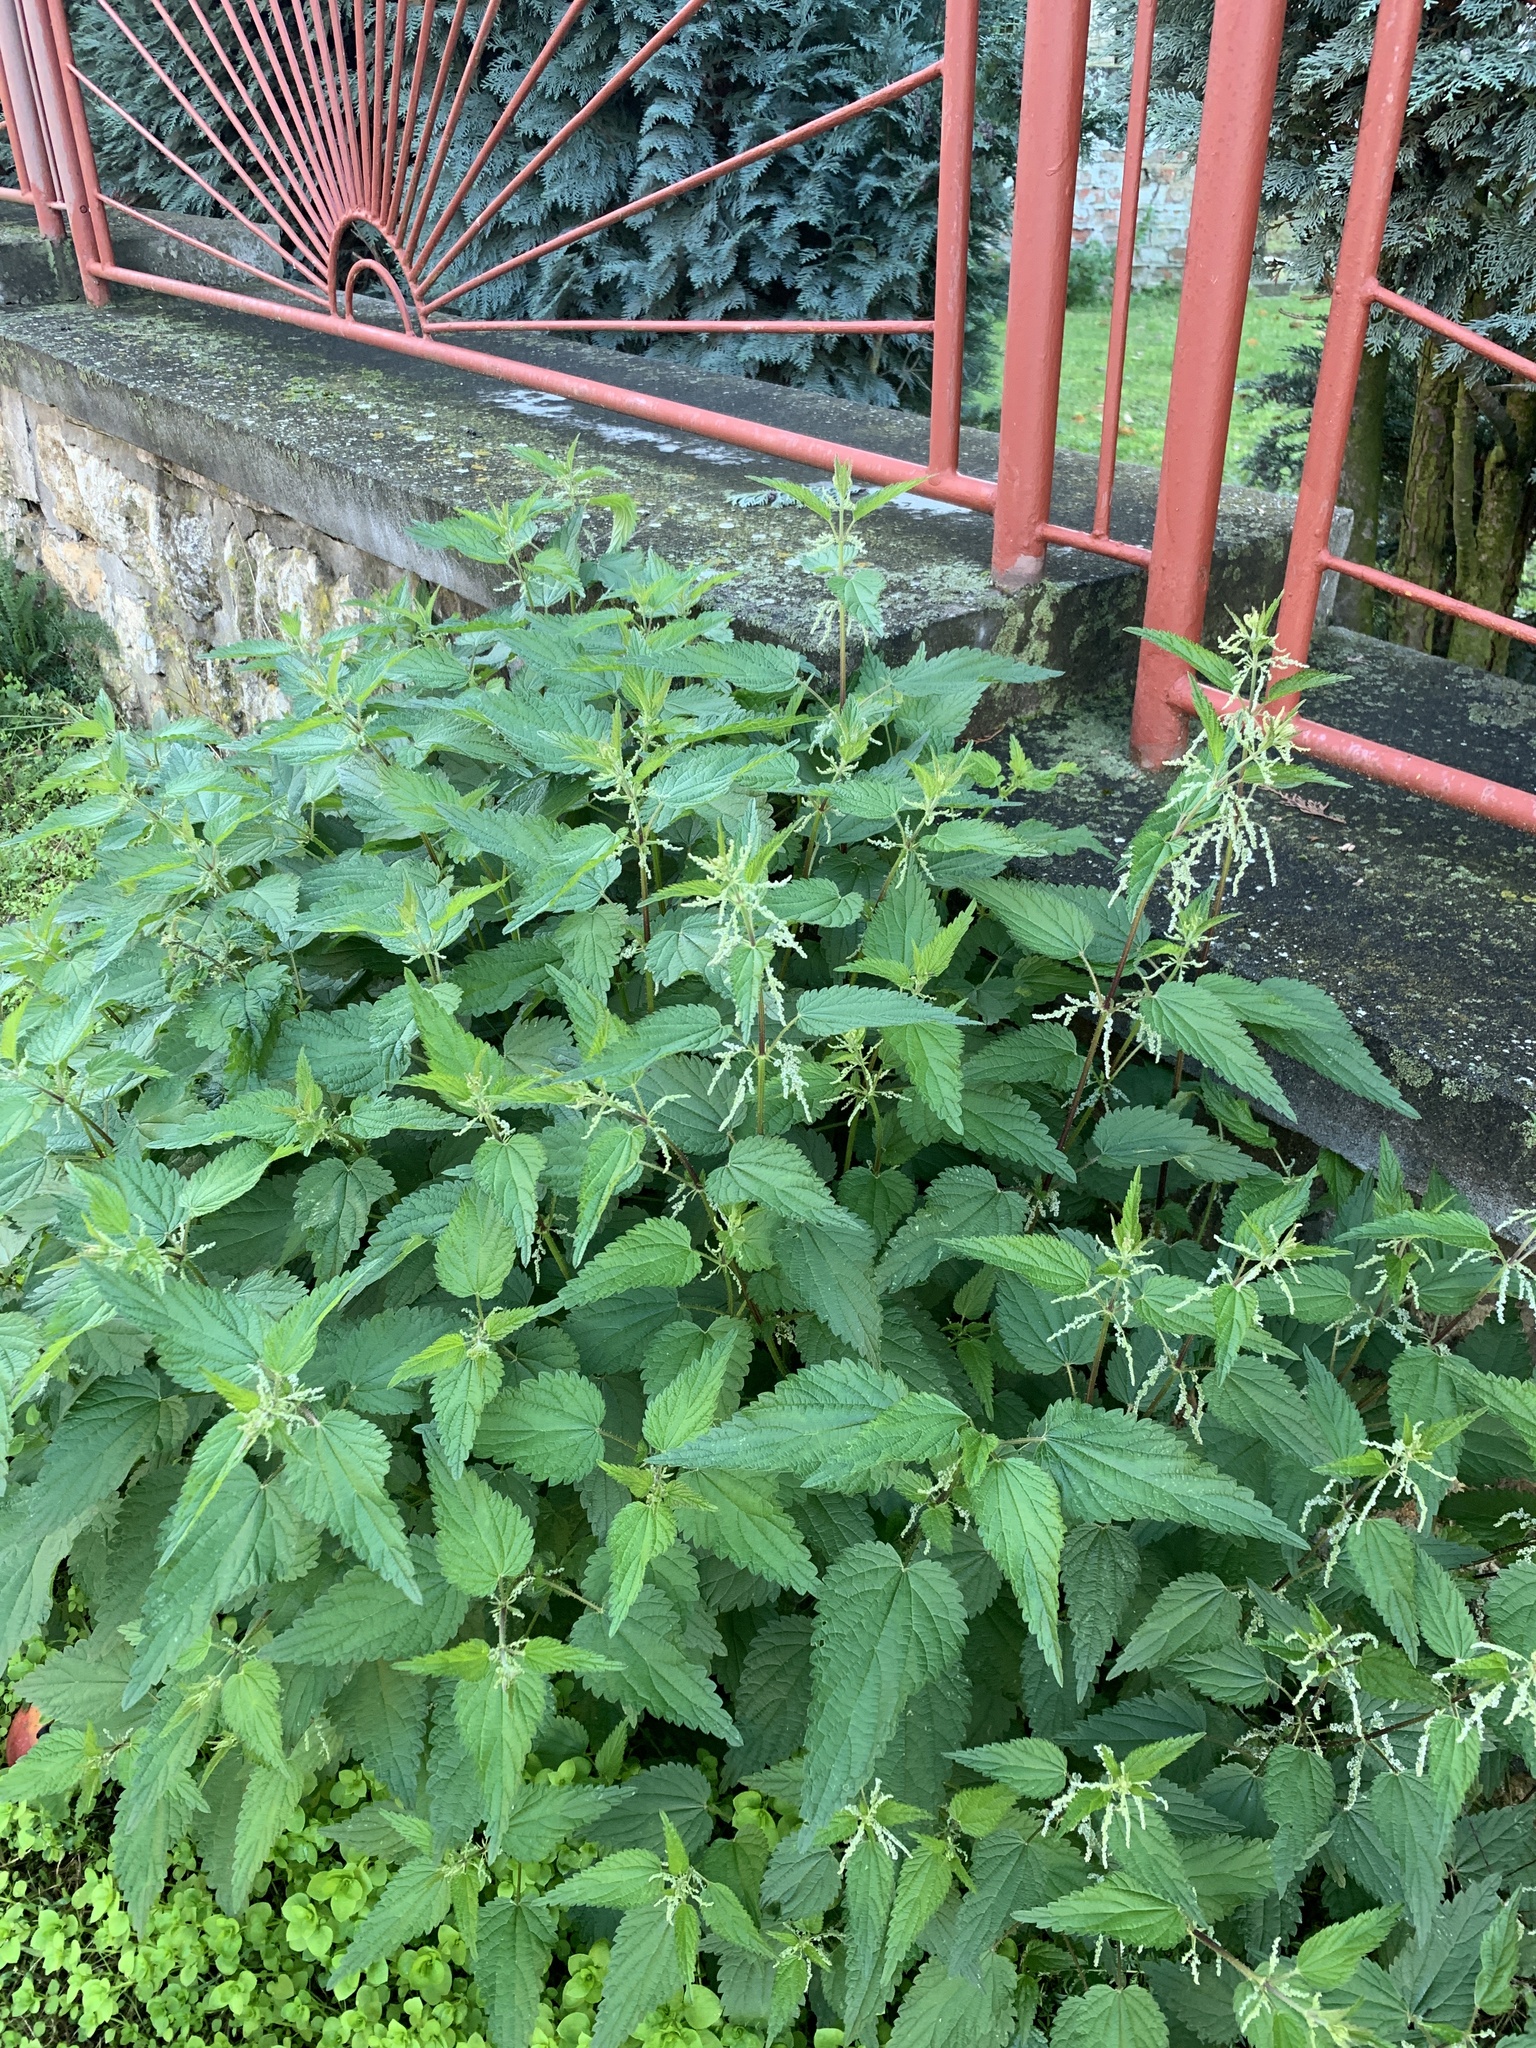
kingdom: Plantae
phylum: Tracheophyta
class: Magnoliopsida
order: Rosales
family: Urticaceae
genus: Urtica
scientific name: Urtica dioica
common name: Common nettle
